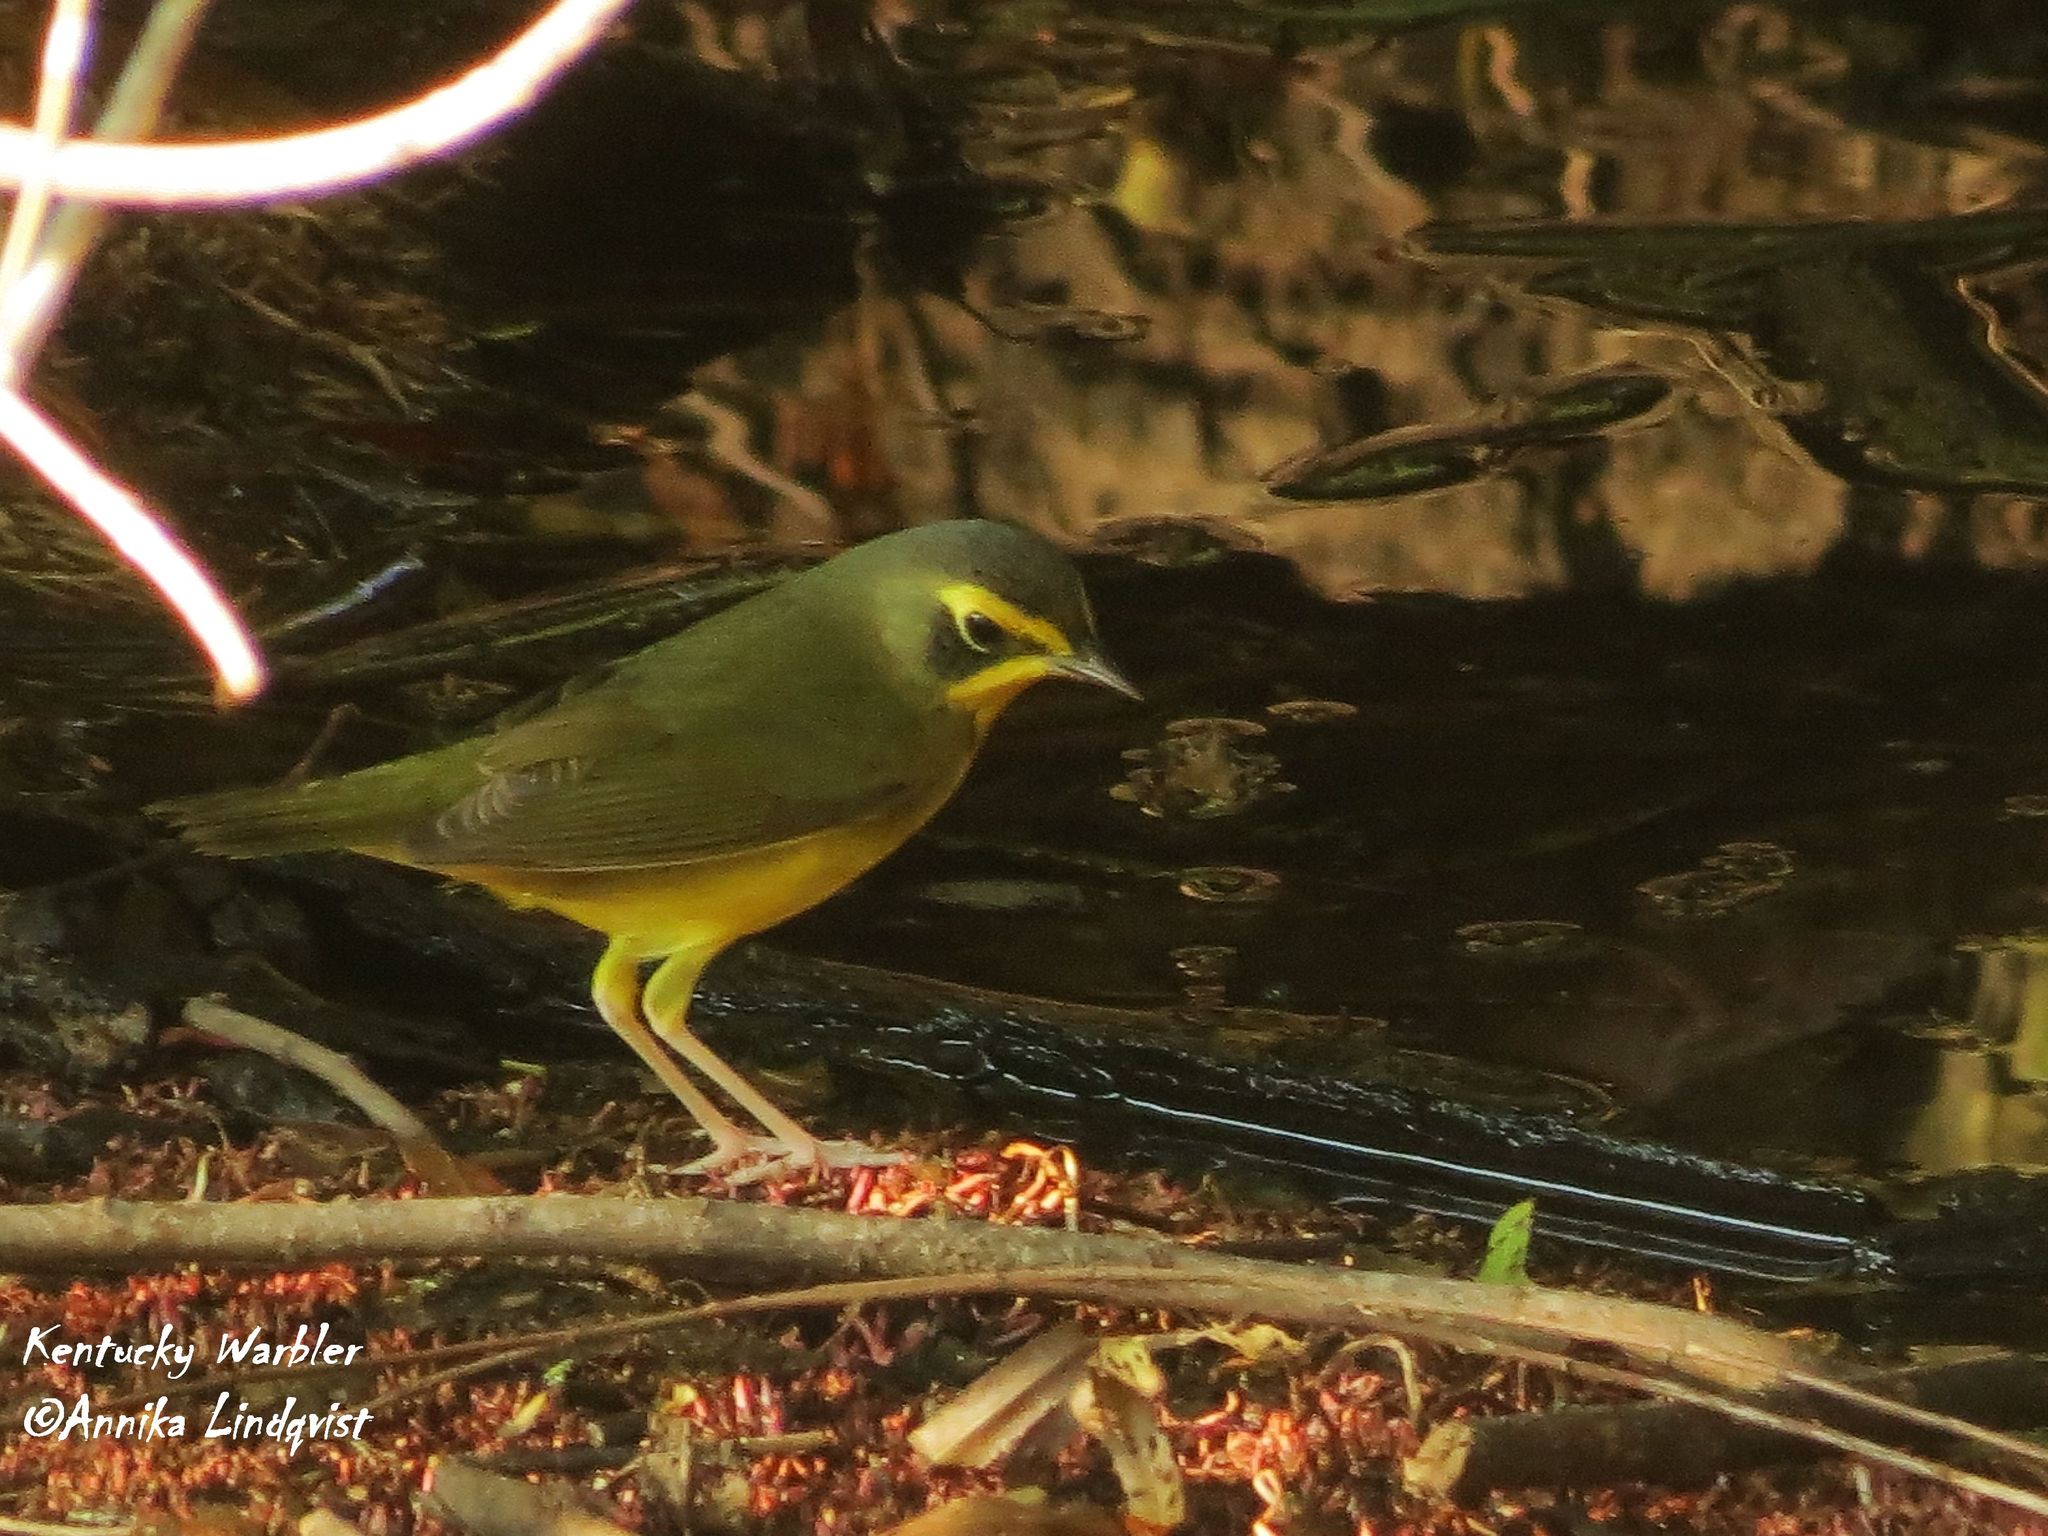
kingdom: Animalia
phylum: Chordata
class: Aves
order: Passeriformes
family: Parulidae
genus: Geothlypis
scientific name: Geothlypis formosa
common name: Kentucky warbler
